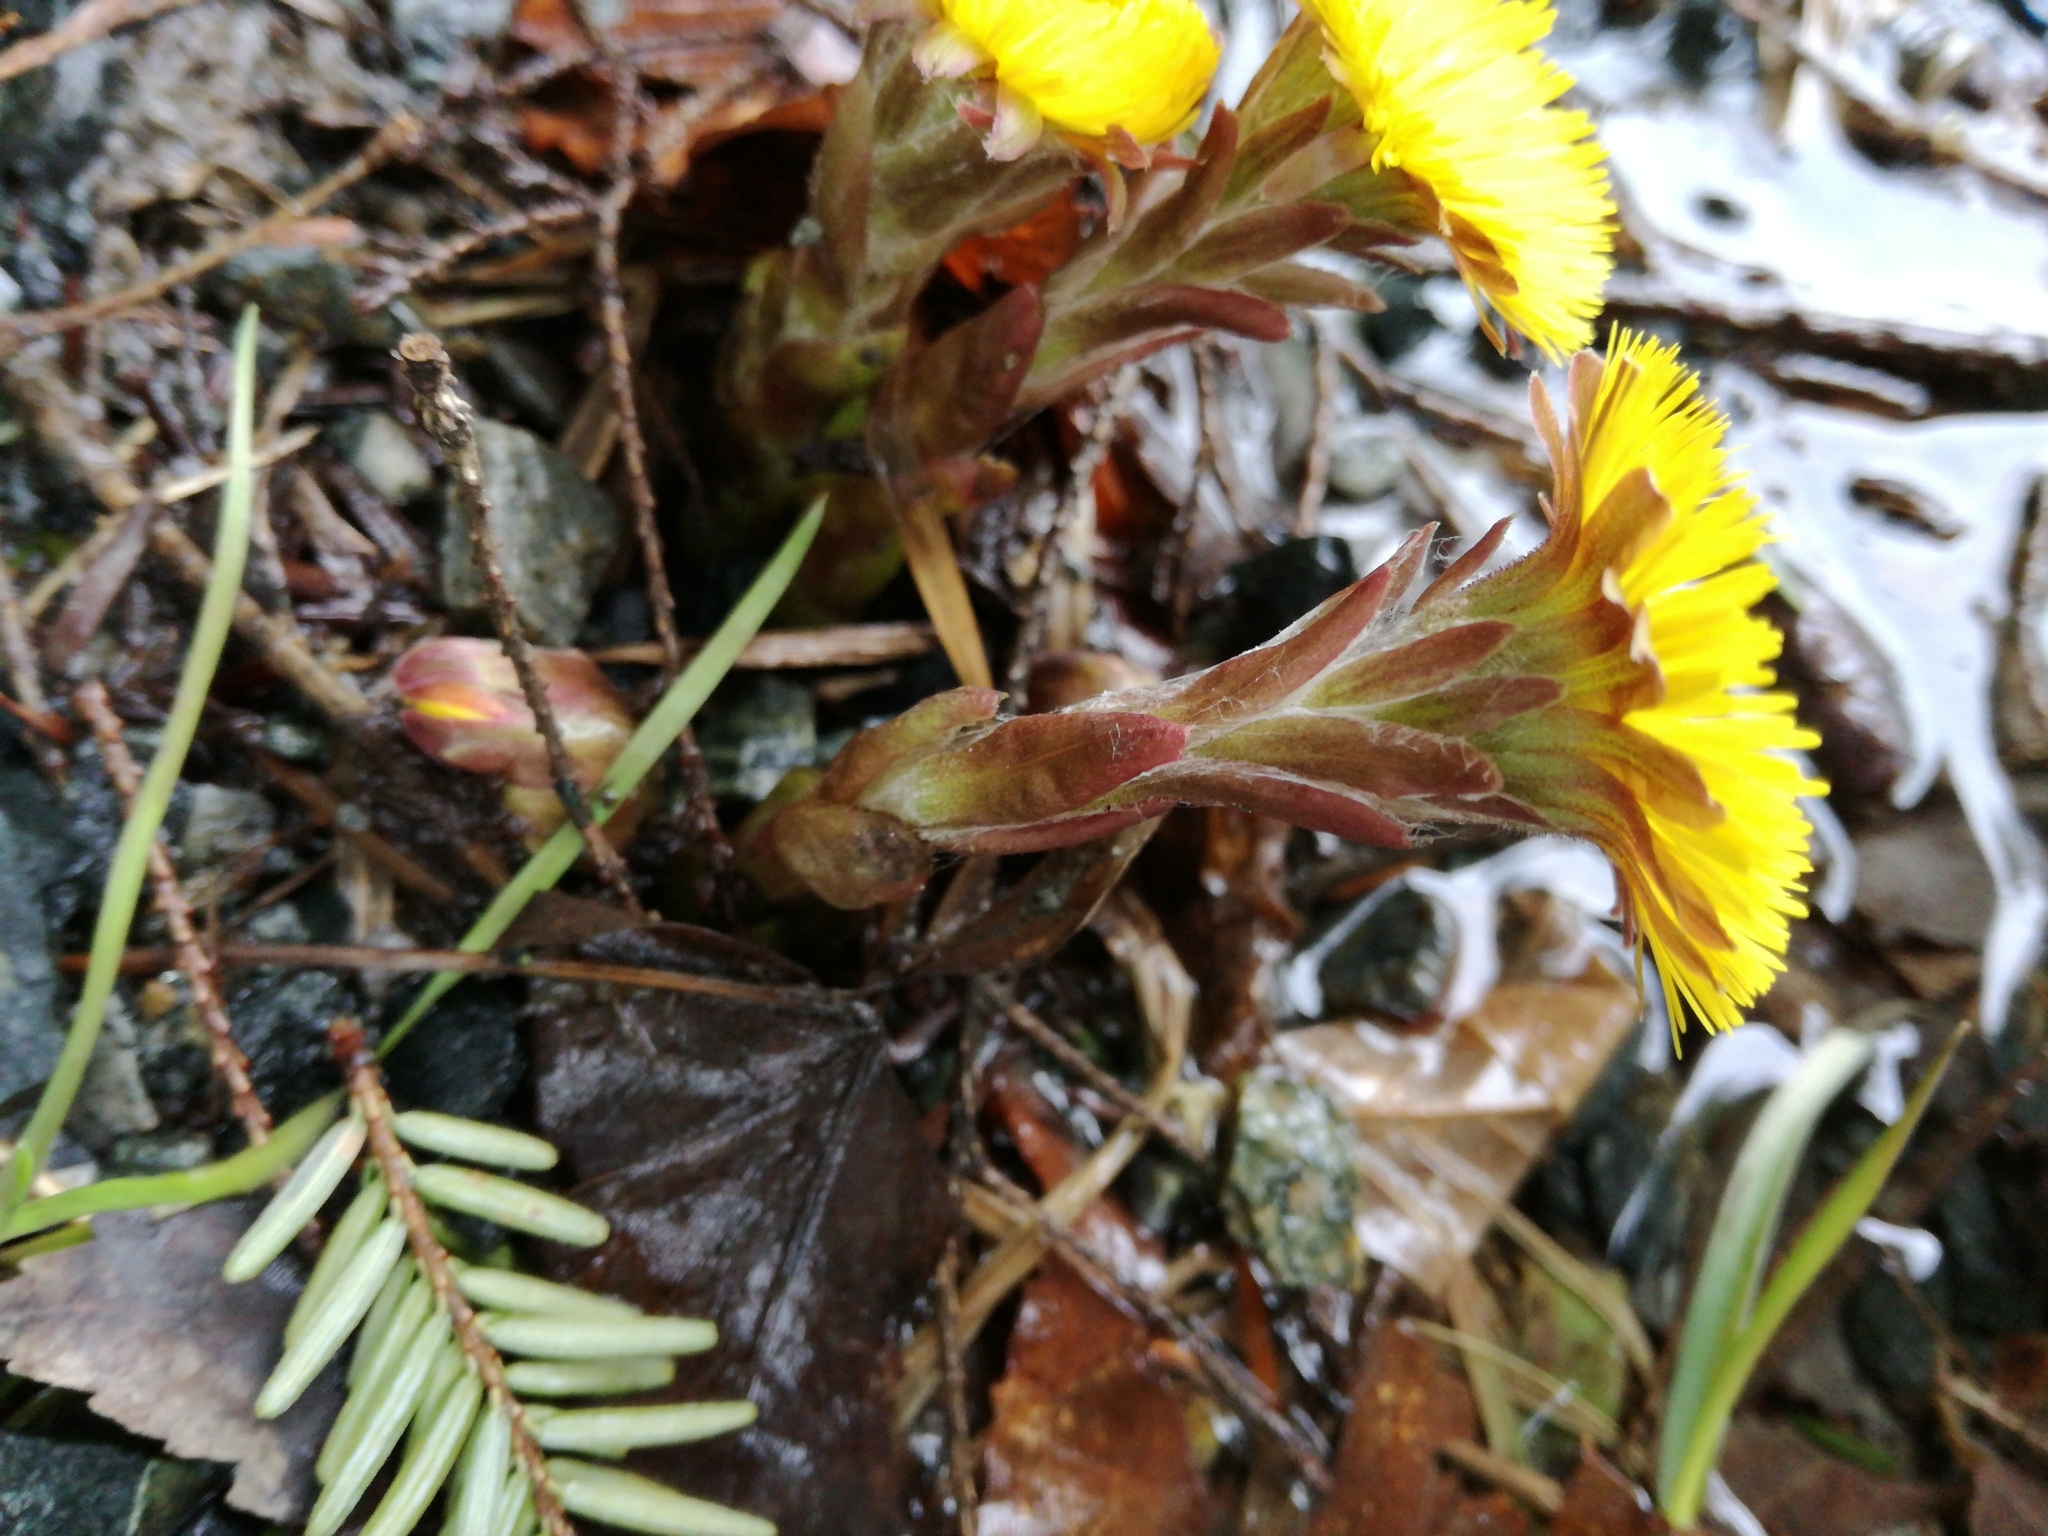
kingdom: Plantae
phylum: Tracheophyta
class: Magnoliopsida
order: Asterales
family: Asteraceae
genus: Tussilago
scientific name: Tussilago farfara
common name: Coltsfoot
